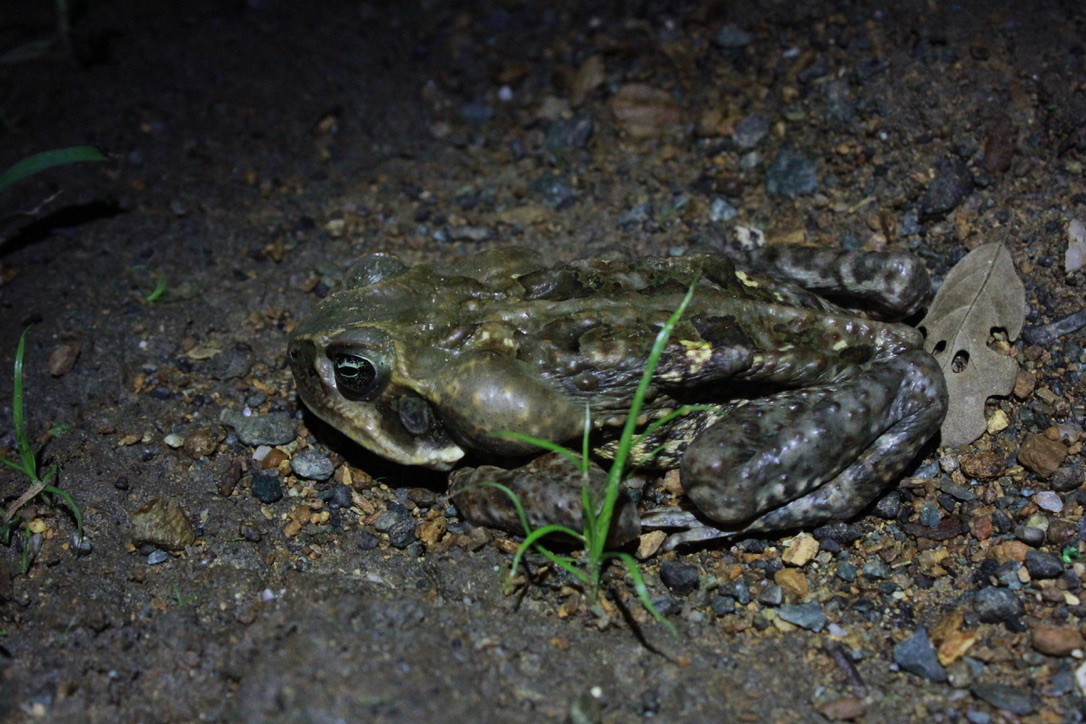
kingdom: Animalia
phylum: Chordata
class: Amphibia
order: Anura
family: Bufonidae
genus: Rhinella
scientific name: Rhinella marina
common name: Cane toad
